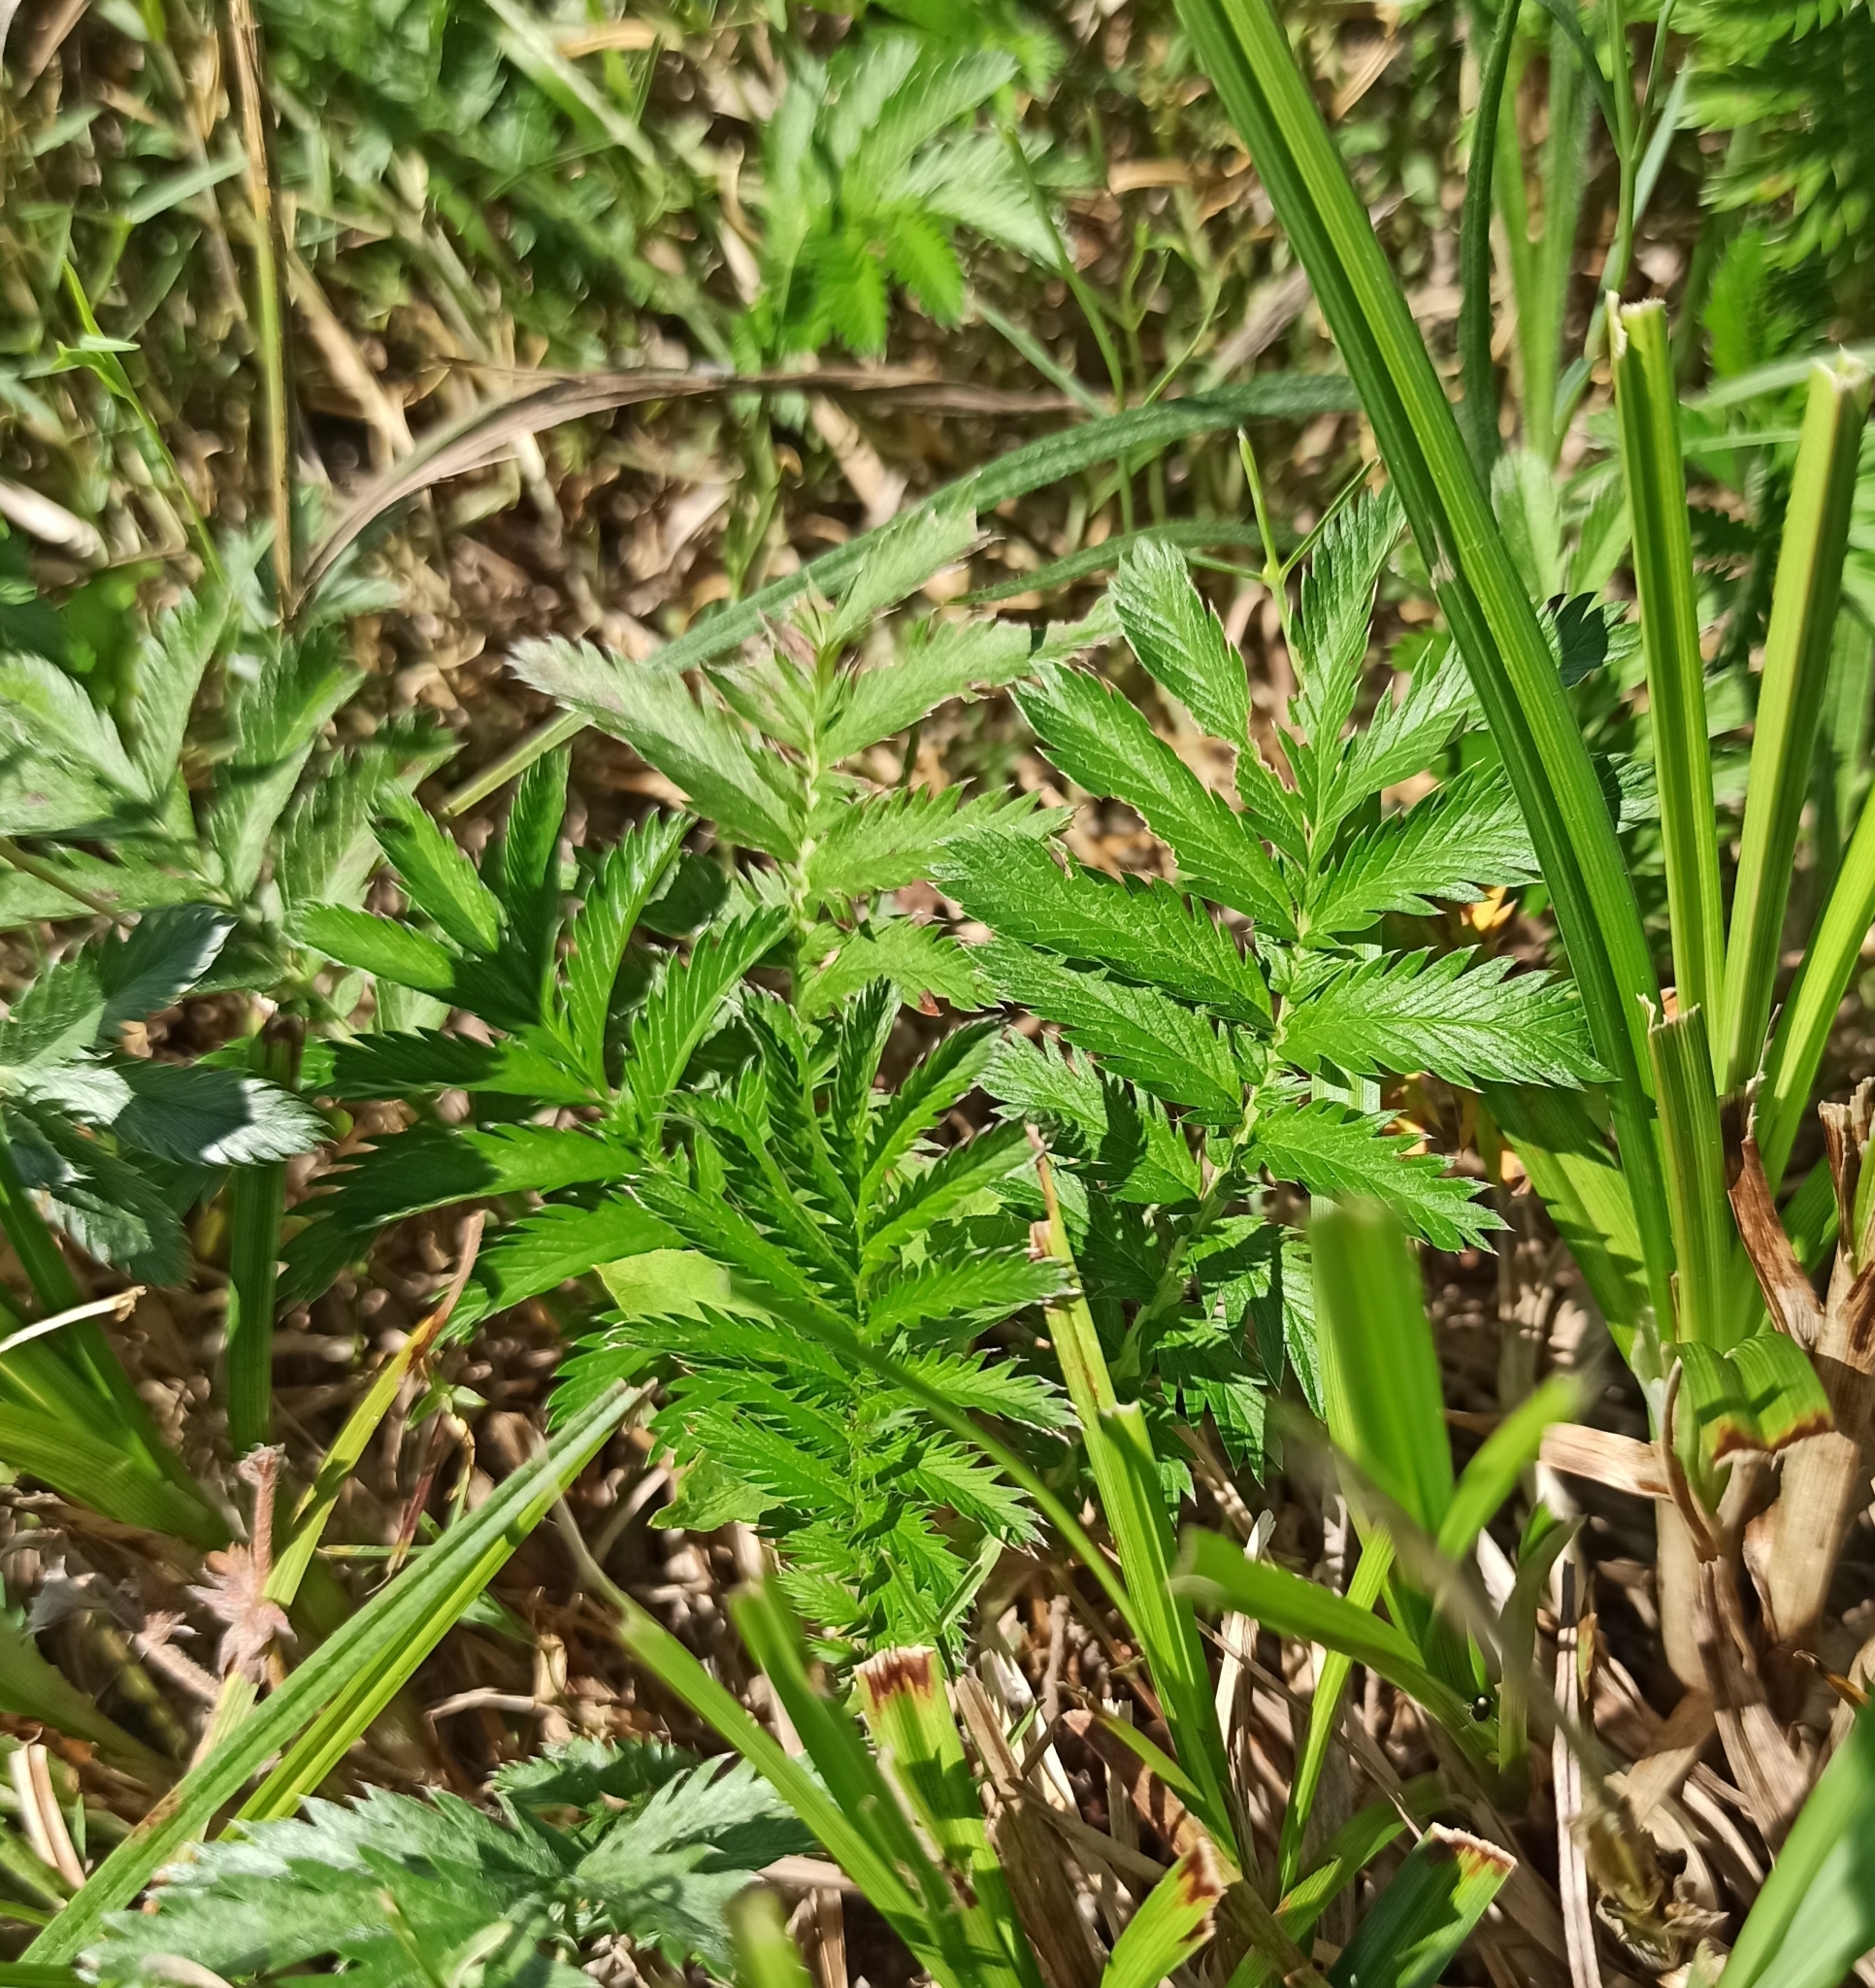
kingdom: Plantae
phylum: Tracheophyta
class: Magnoliopsida
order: Rosales
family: Rosaceae
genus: Argentina
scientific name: Argentina anserina
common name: Common silverweed
